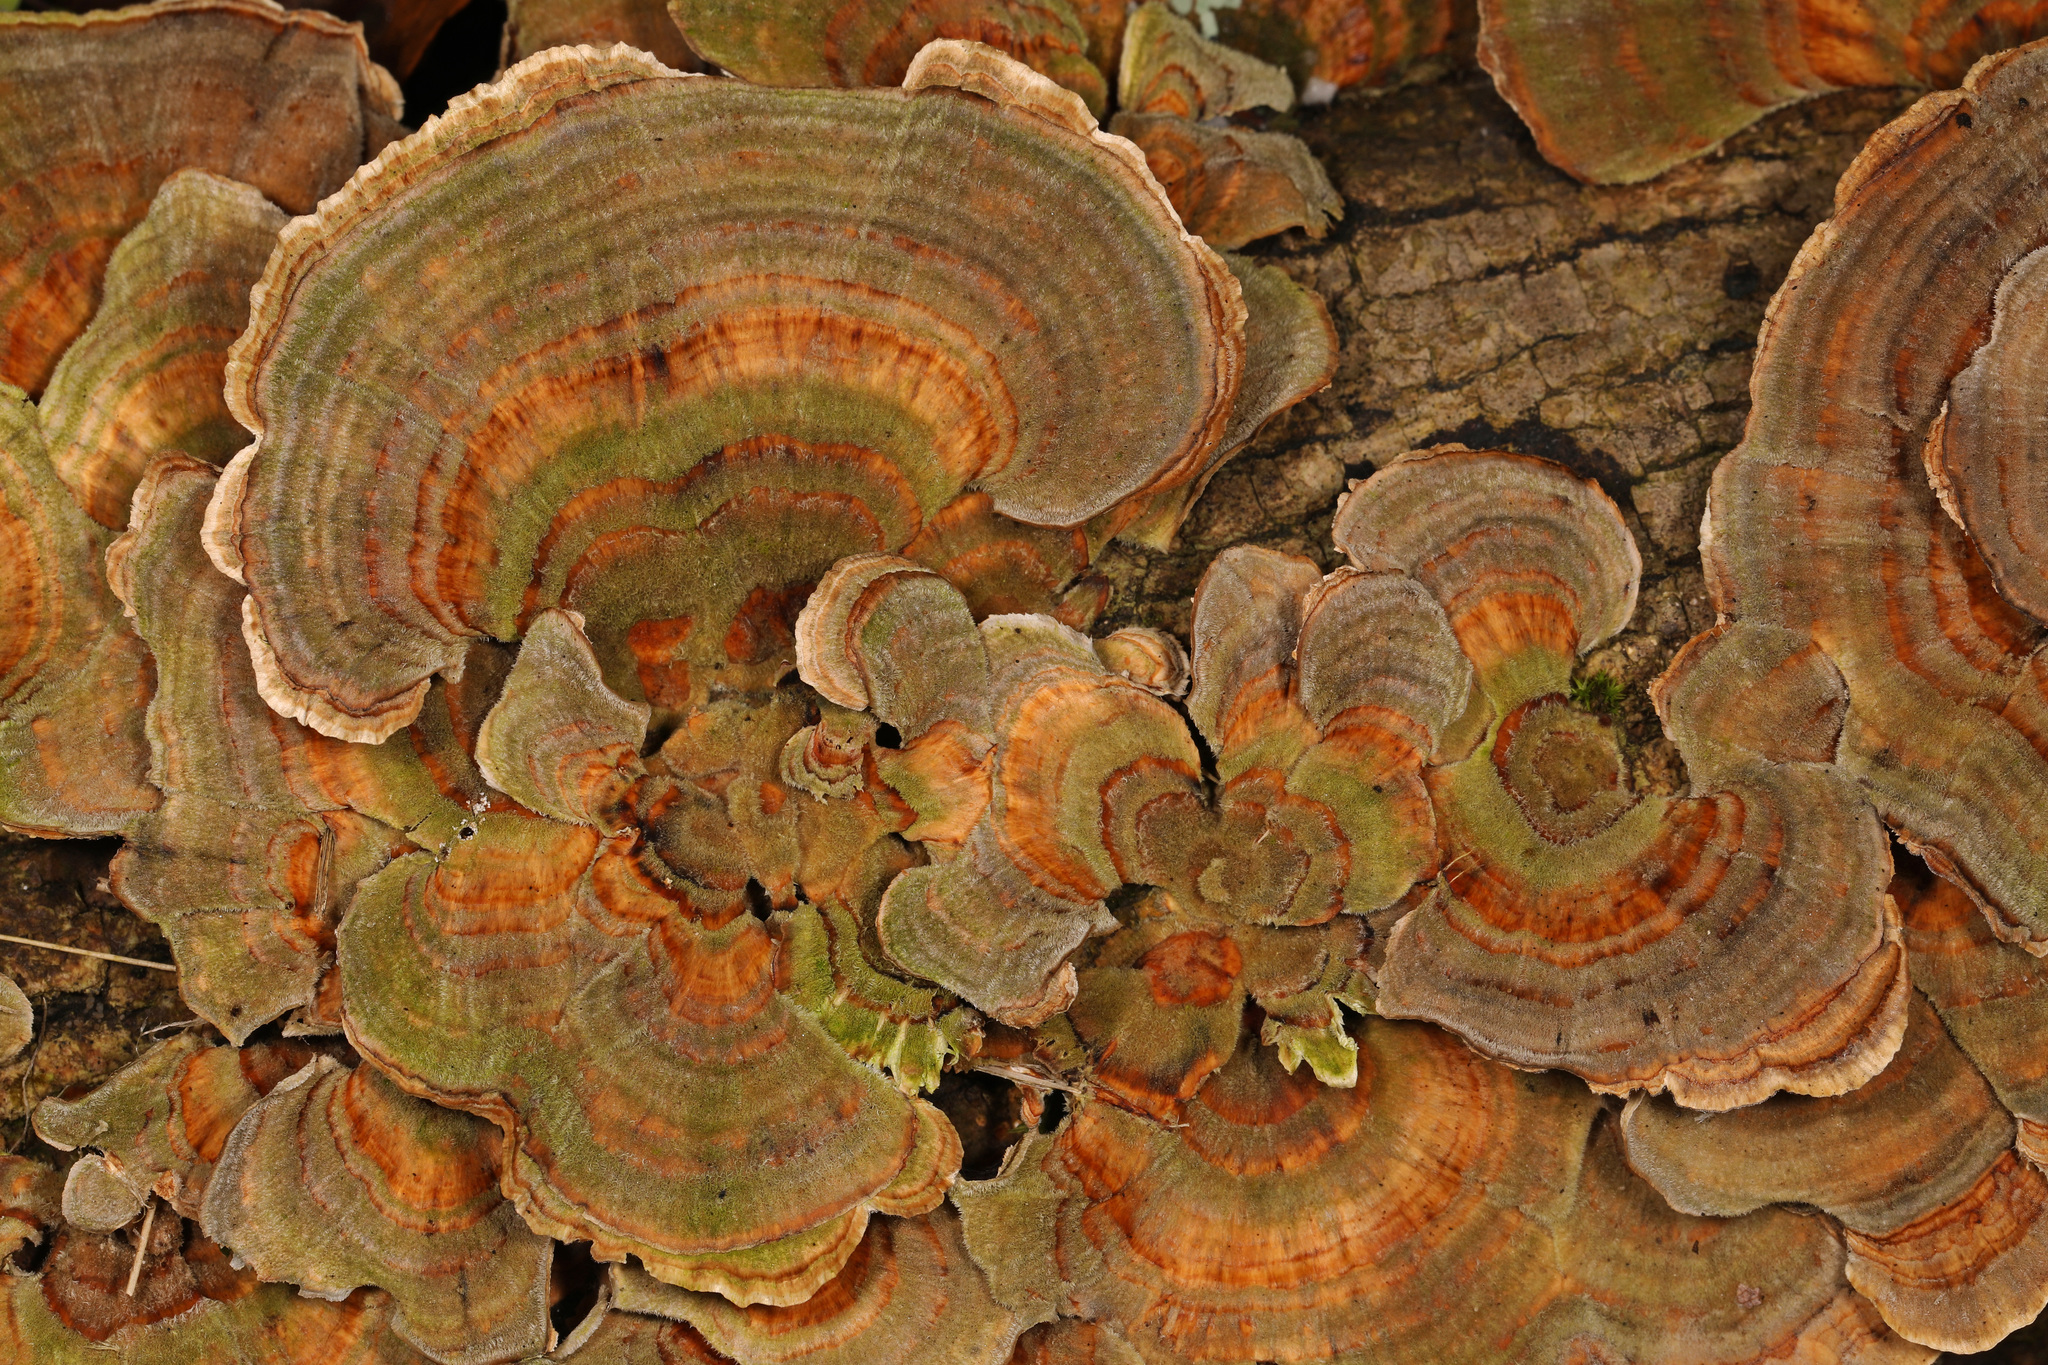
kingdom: Fungi
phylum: Basidiomycota
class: Agaricomycetes
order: Polyporales
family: Polyporaceae
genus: Trametes
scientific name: Trametes versicolor
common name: Turkeytail
